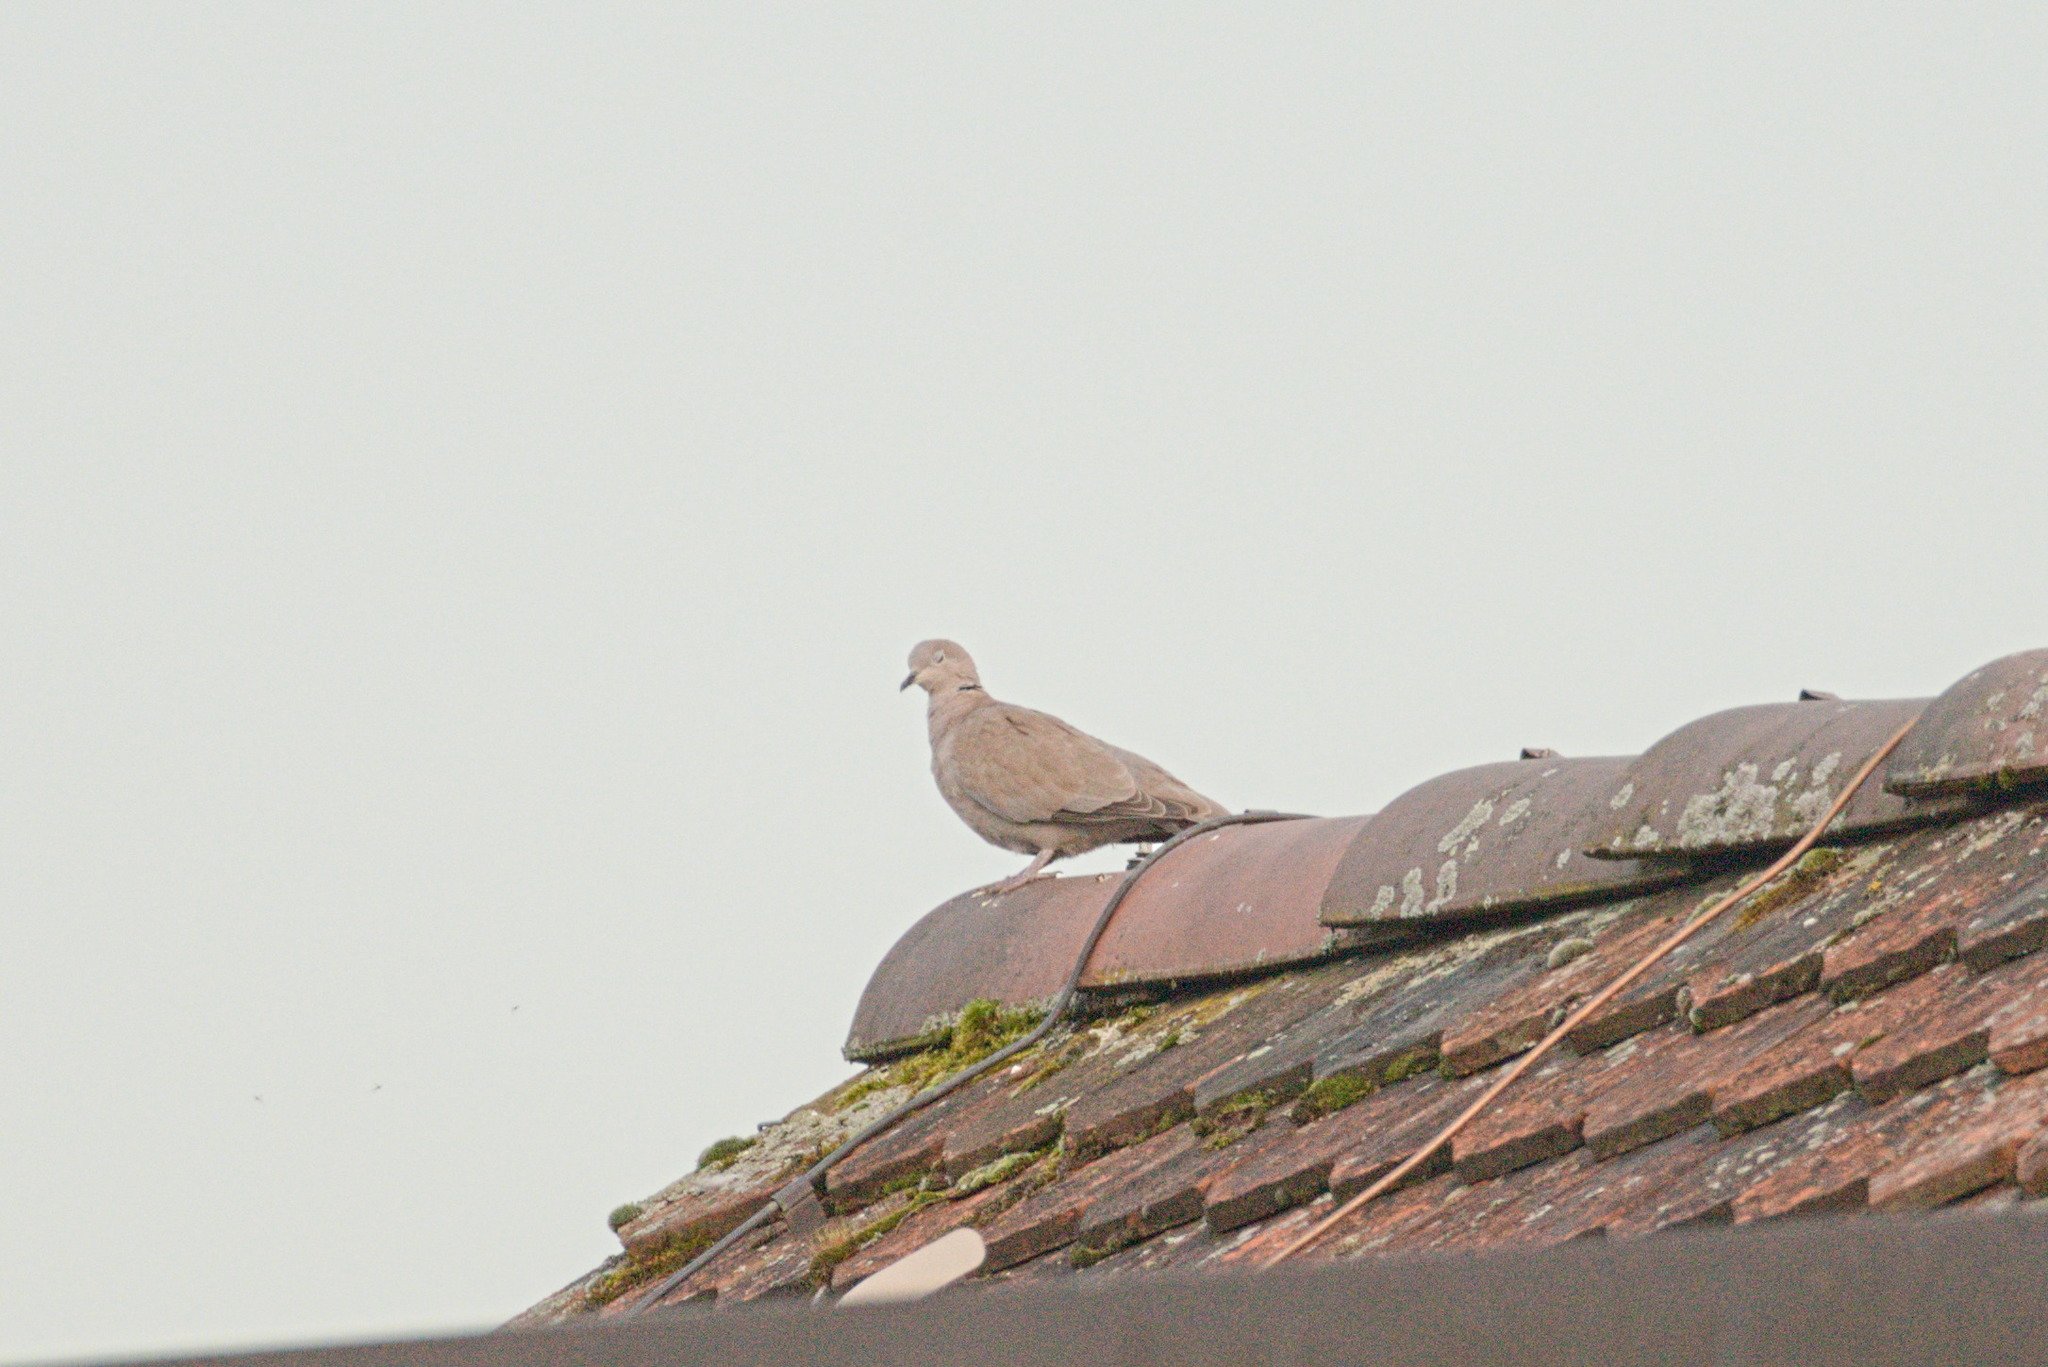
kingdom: Animalia
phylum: Chordata
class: Aves
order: Columbiformes
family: Columbidae
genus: Streptopelia
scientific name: Streptopelia decaocto
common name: Eurasian collared dove
